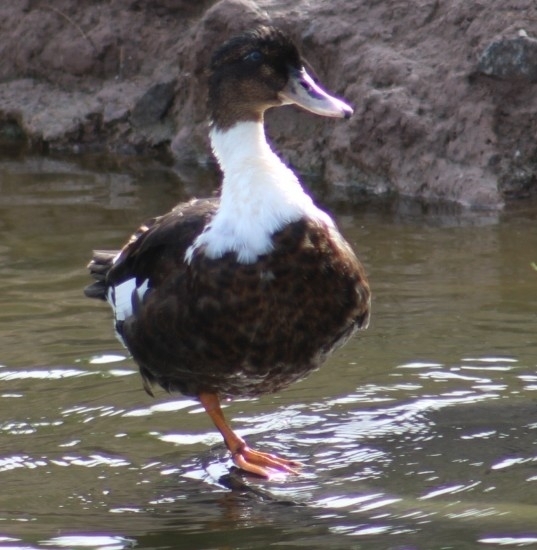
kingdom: Animalia
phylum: Chordata
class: Aves
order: Anseriformes
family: Anatidae
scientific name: Anatidae
